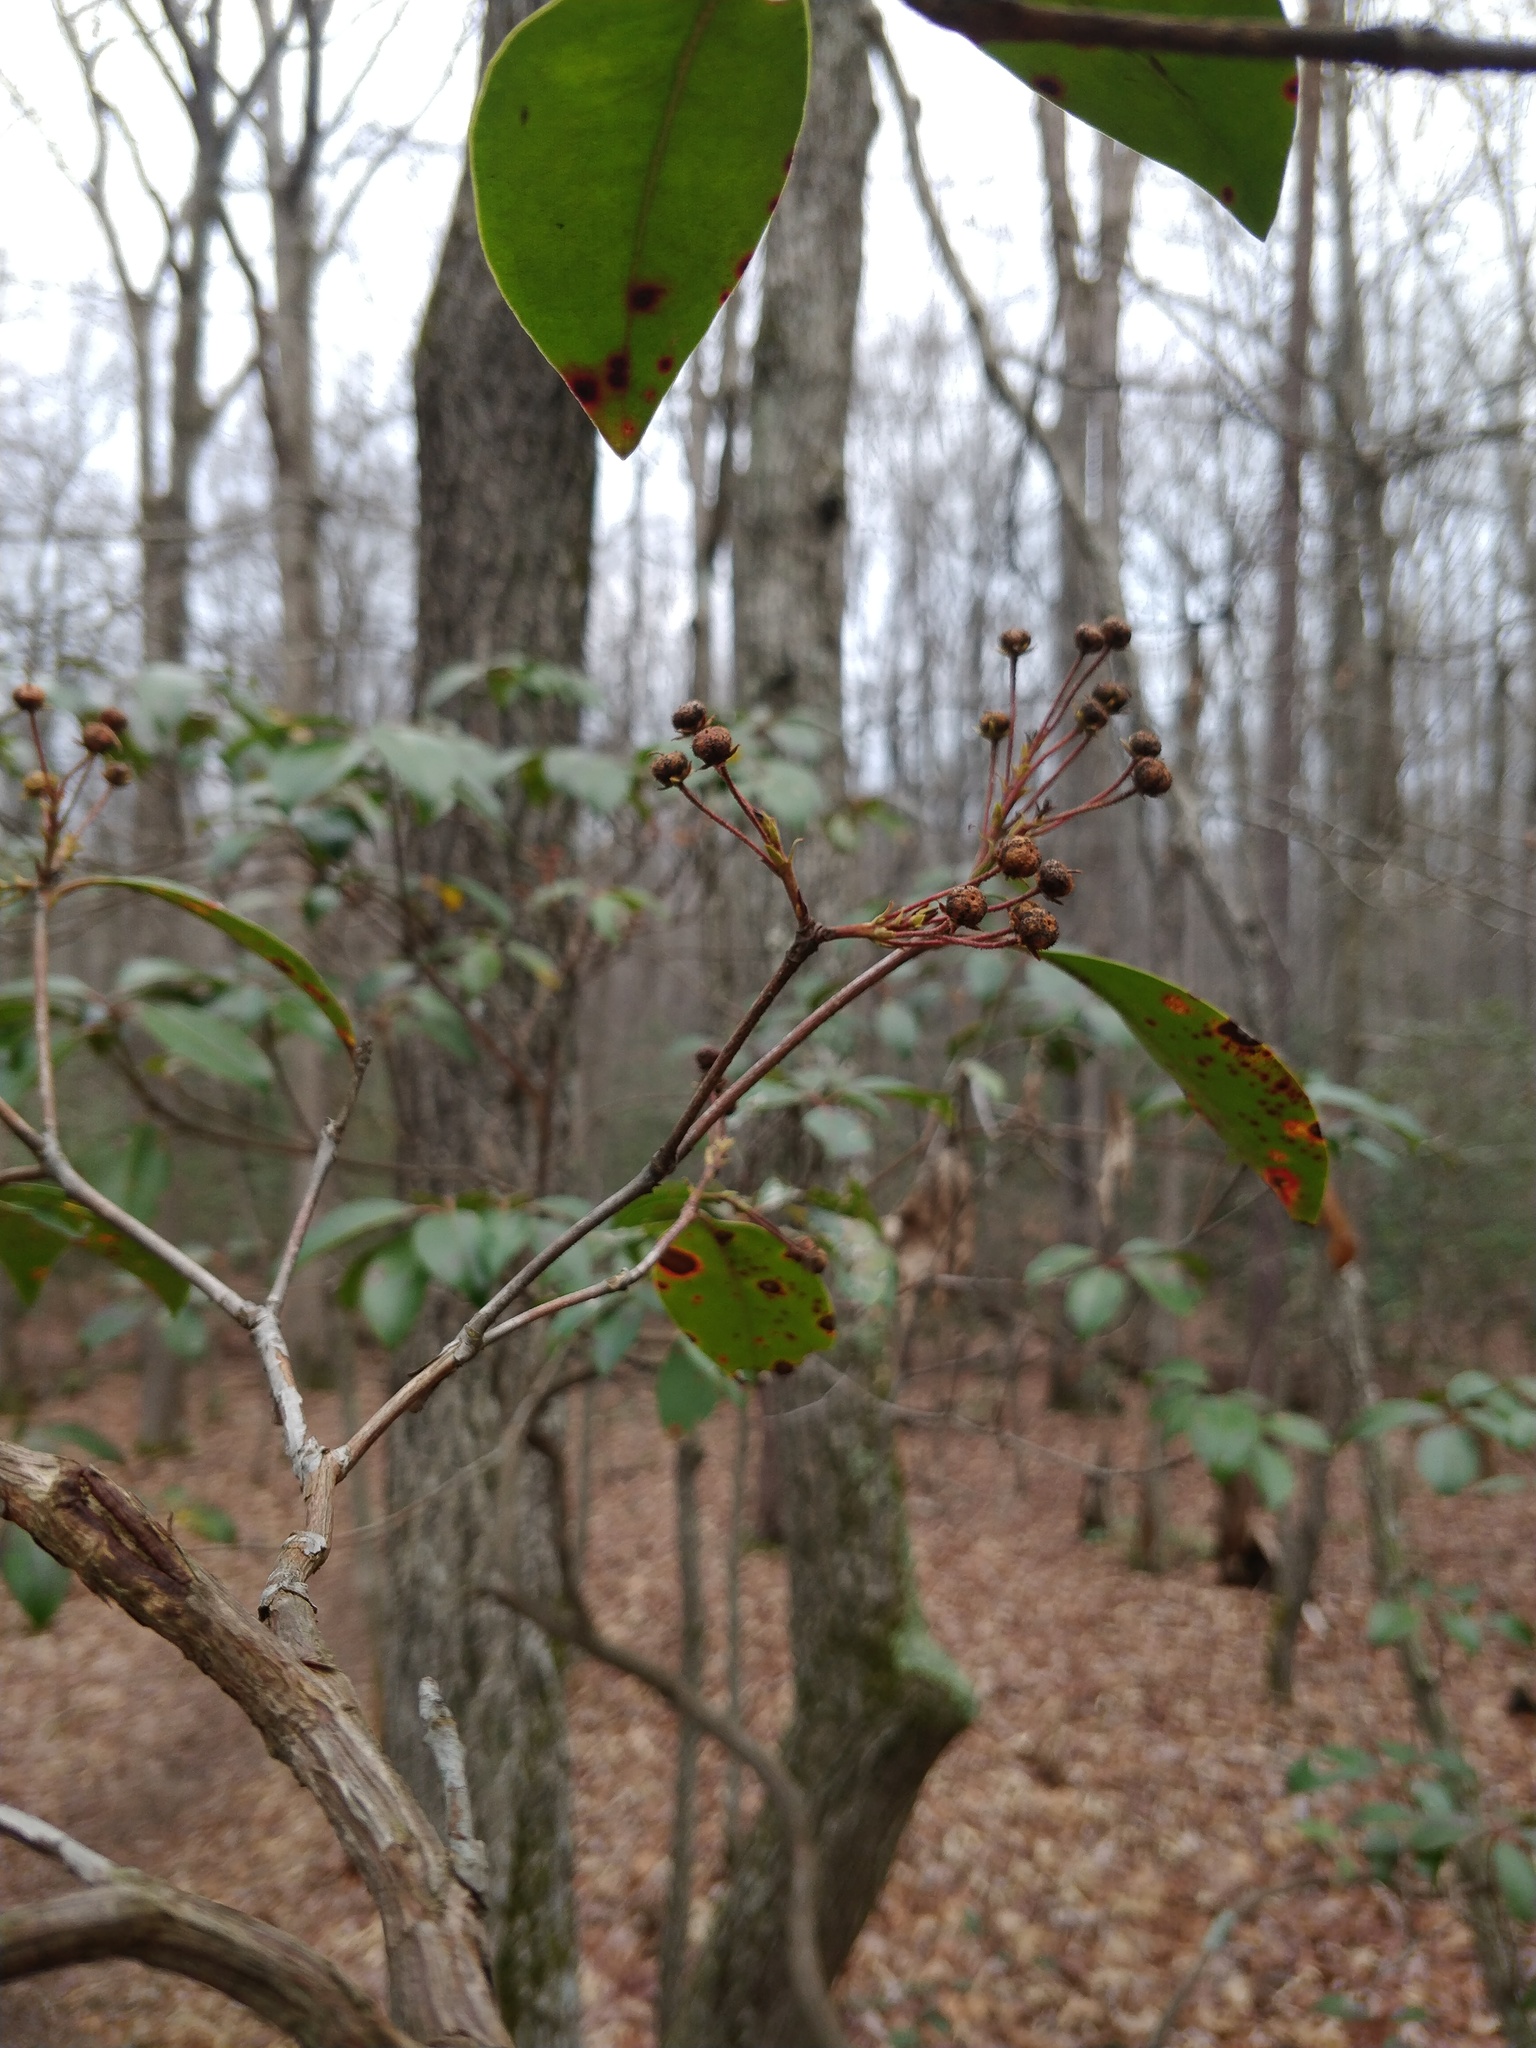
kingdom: Plantae
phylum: Tracheophyta
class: Magnoliopsida
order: Ericales
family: Ericaceae
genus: Kalmia
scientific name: Kalmia latifolia
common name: Mountain-laurel
